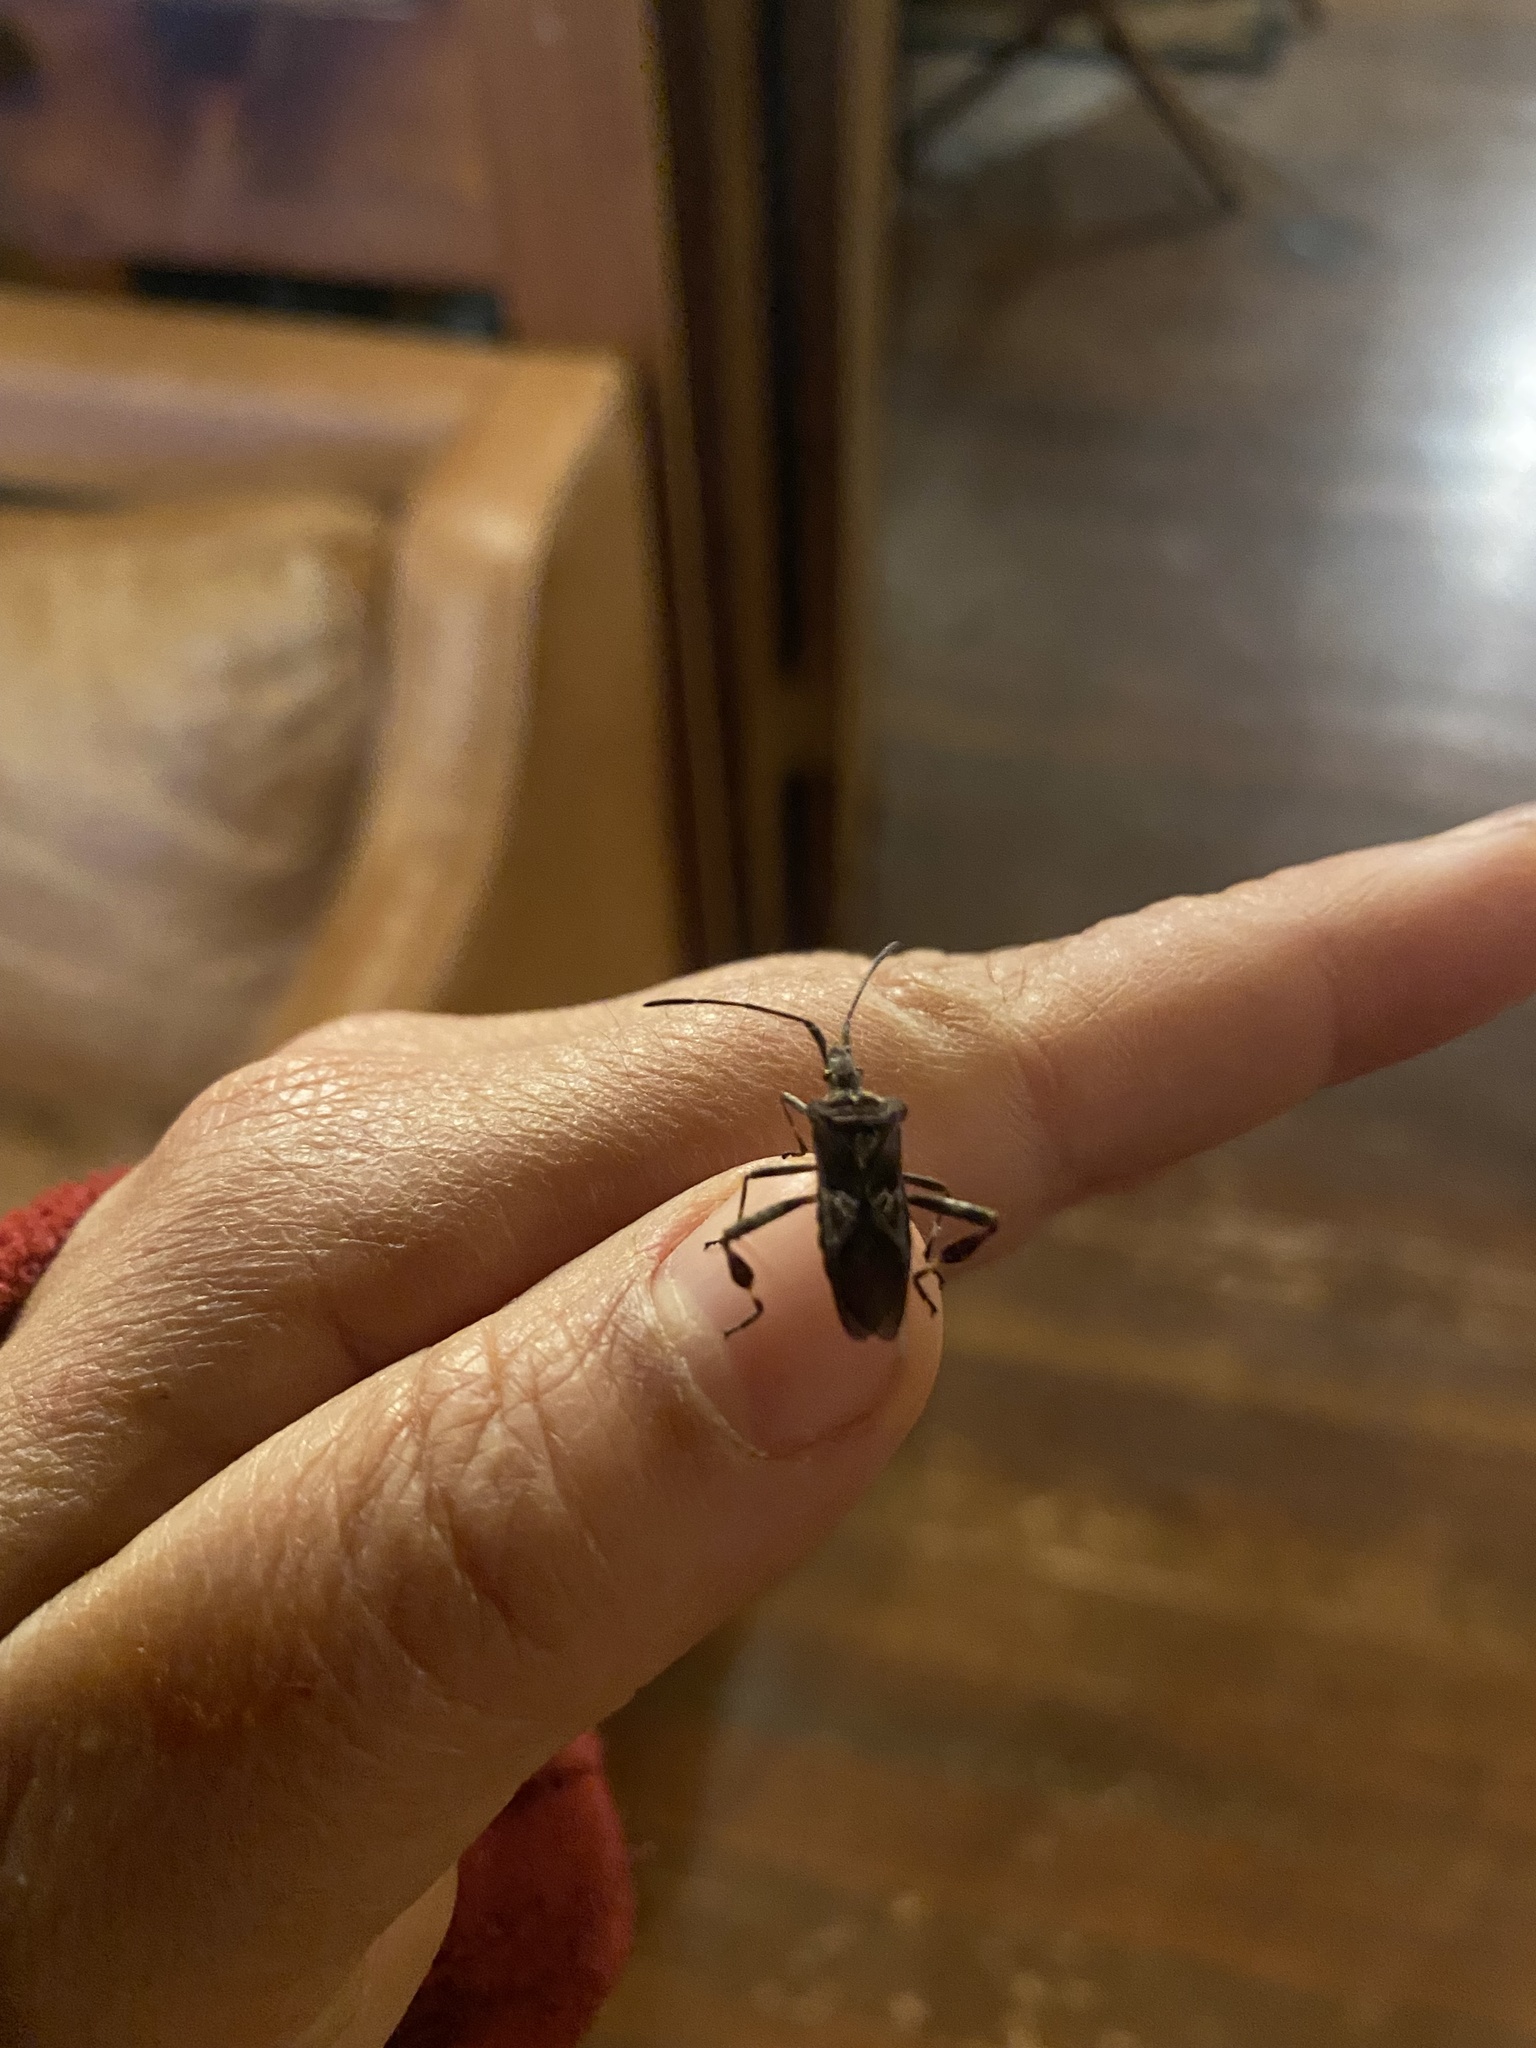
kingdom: Animalia
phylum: Arthropoda
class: Insecta
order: Hemiptera
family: Coreidae
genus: Leptoglossus
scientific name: Leptoglossus occidentalis
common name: Western conifer-seed bug
